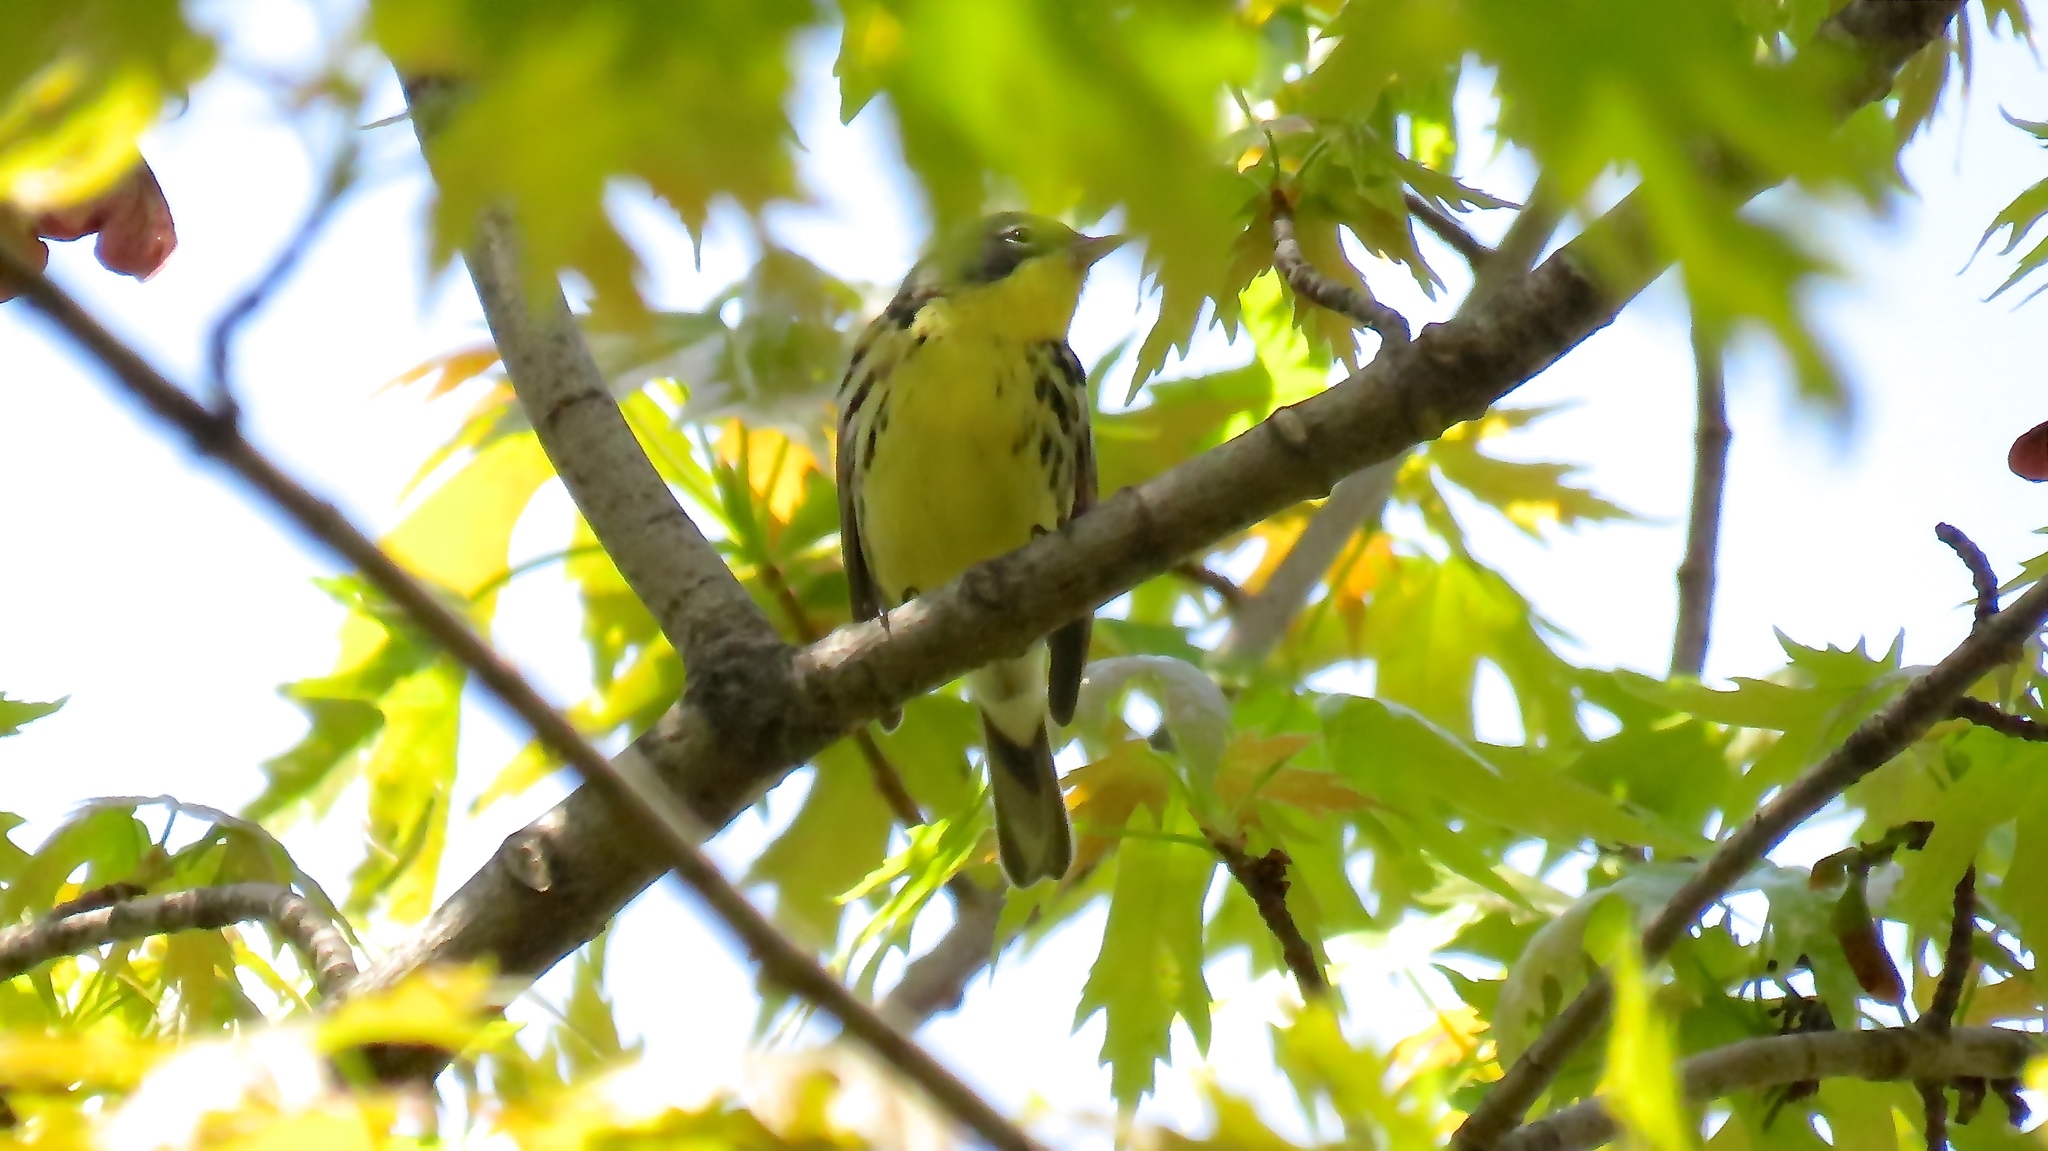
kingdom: Animalia
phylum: Chordata
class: Aves
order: Passeriformes
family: Parulidae
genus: Setophaga
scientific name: Setophaga kirtlandii
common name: Kirtland's warbler
